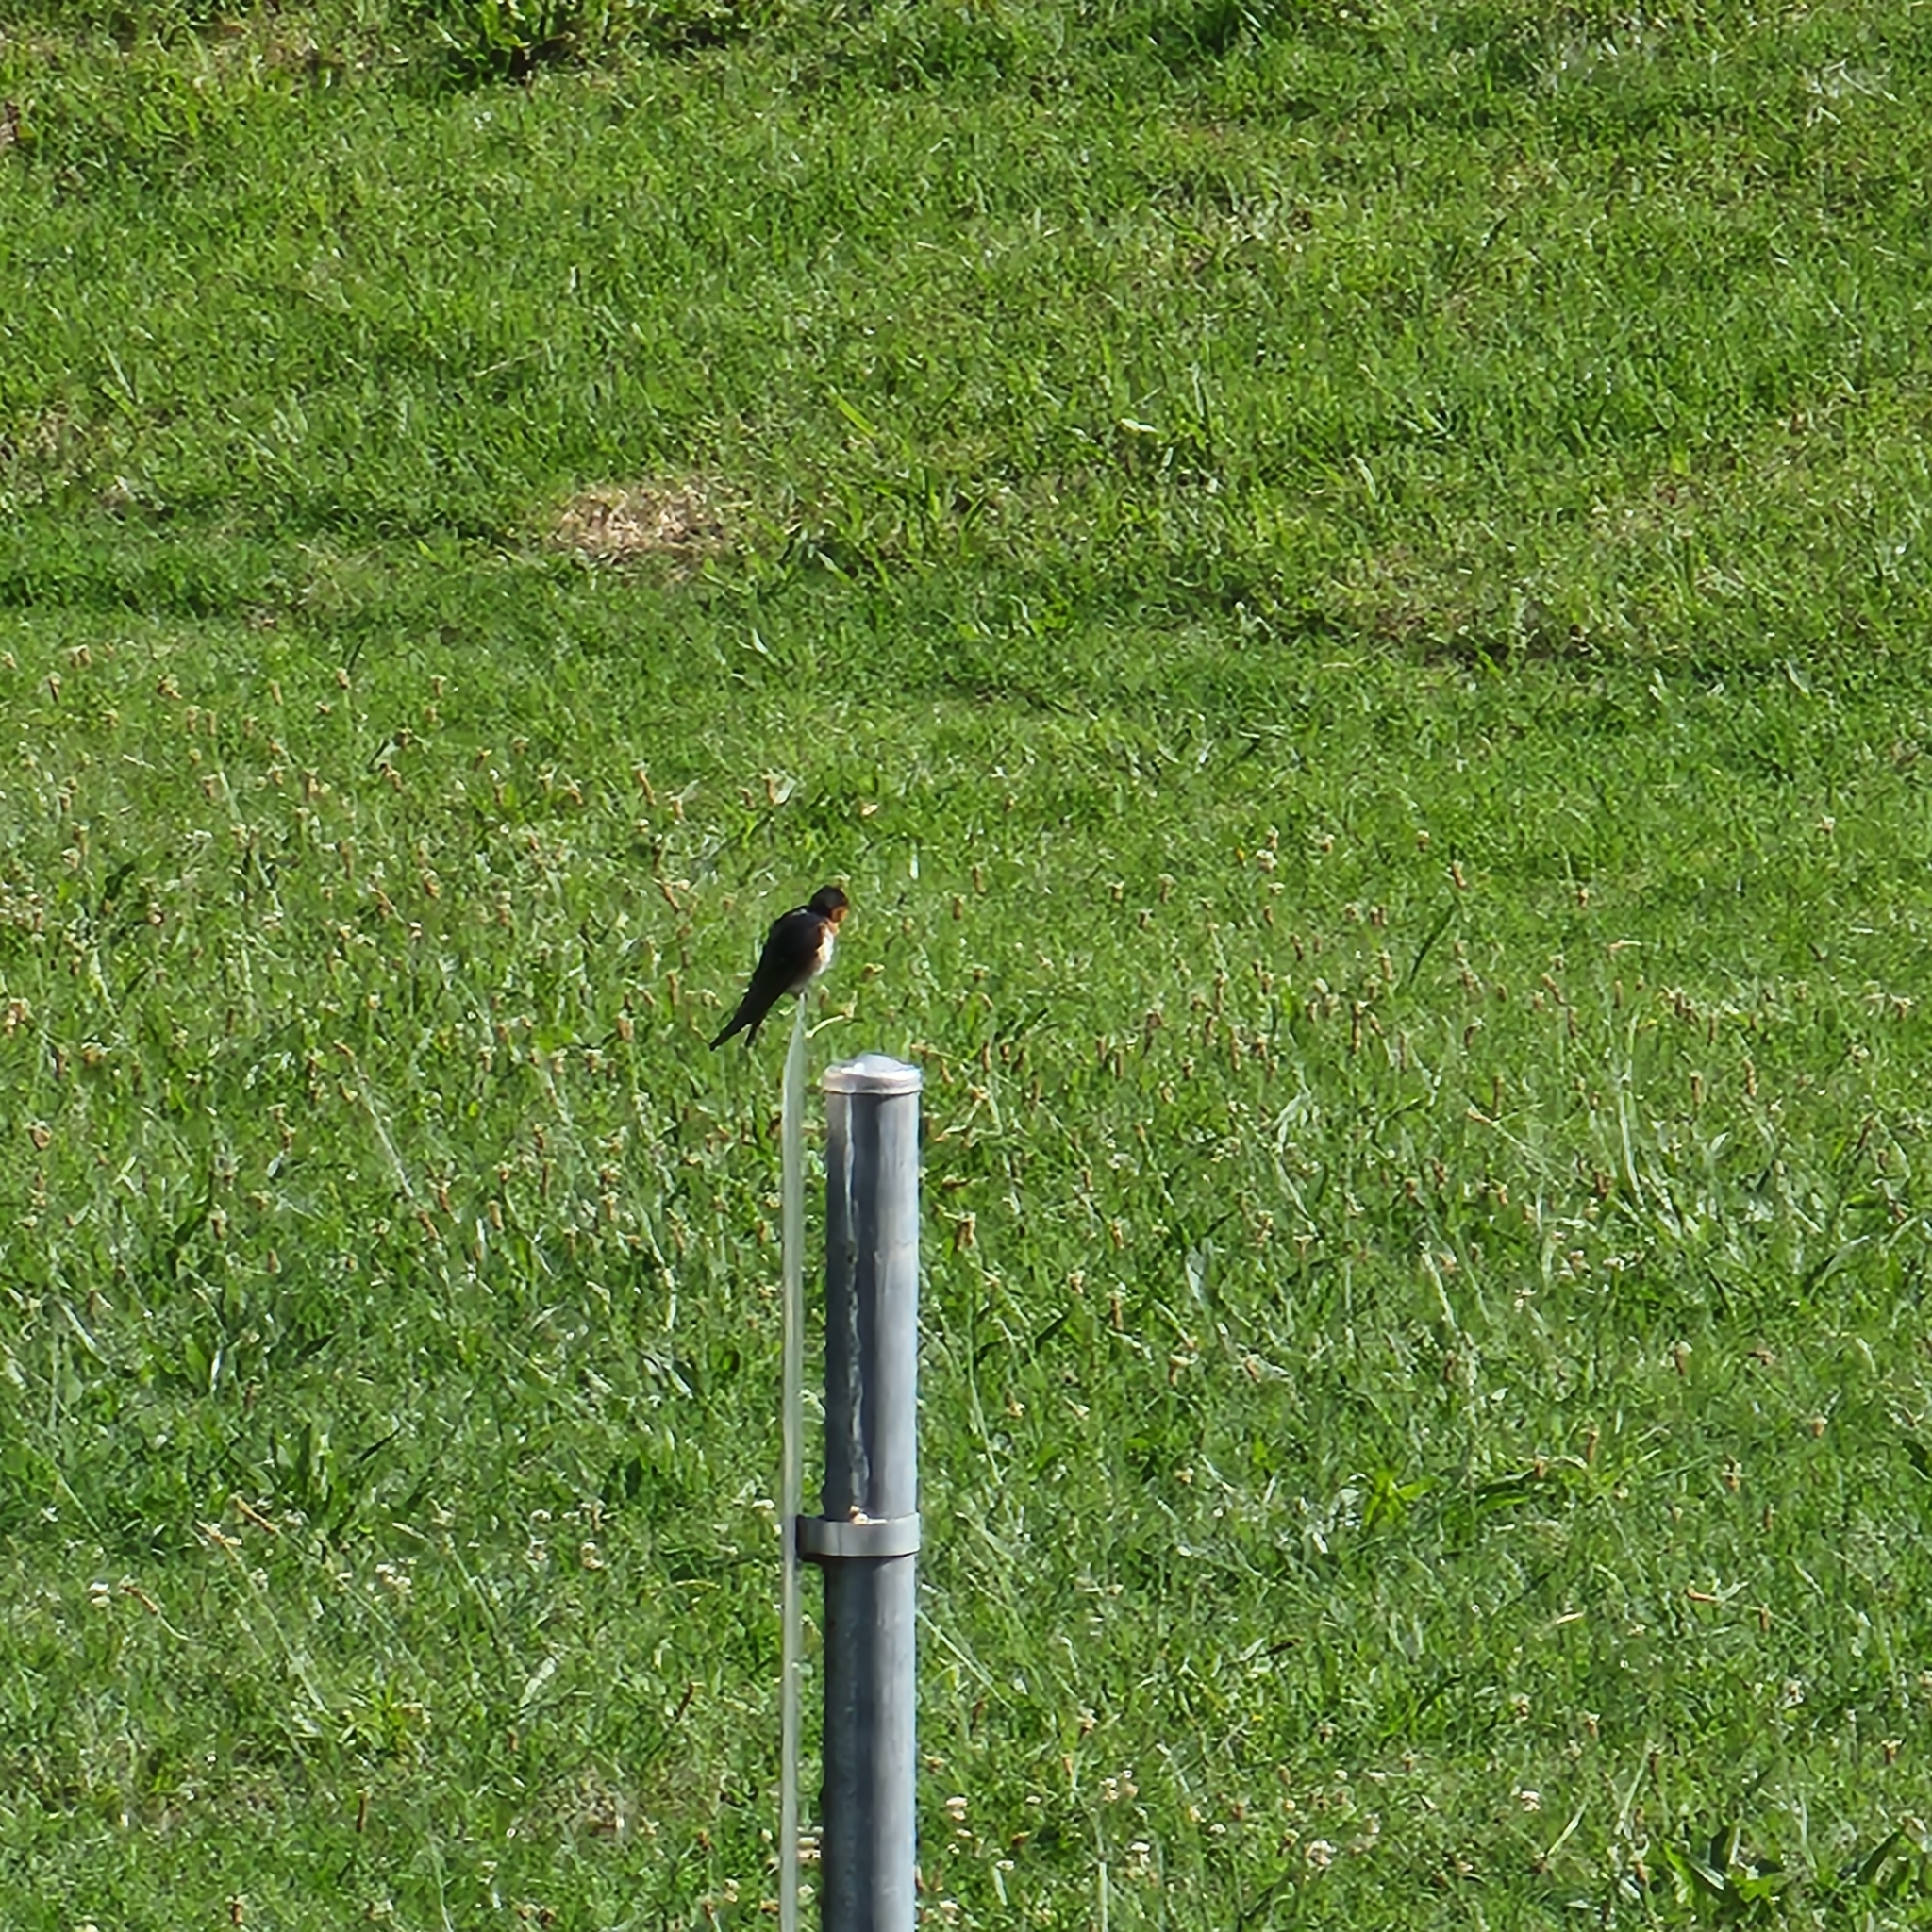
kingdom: Animalia
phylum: Chordata
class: Aves
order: Passeriformes
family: Hirundinidae
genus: Hirundo
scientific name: Hirundo neoxena
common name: Welcome swallow
